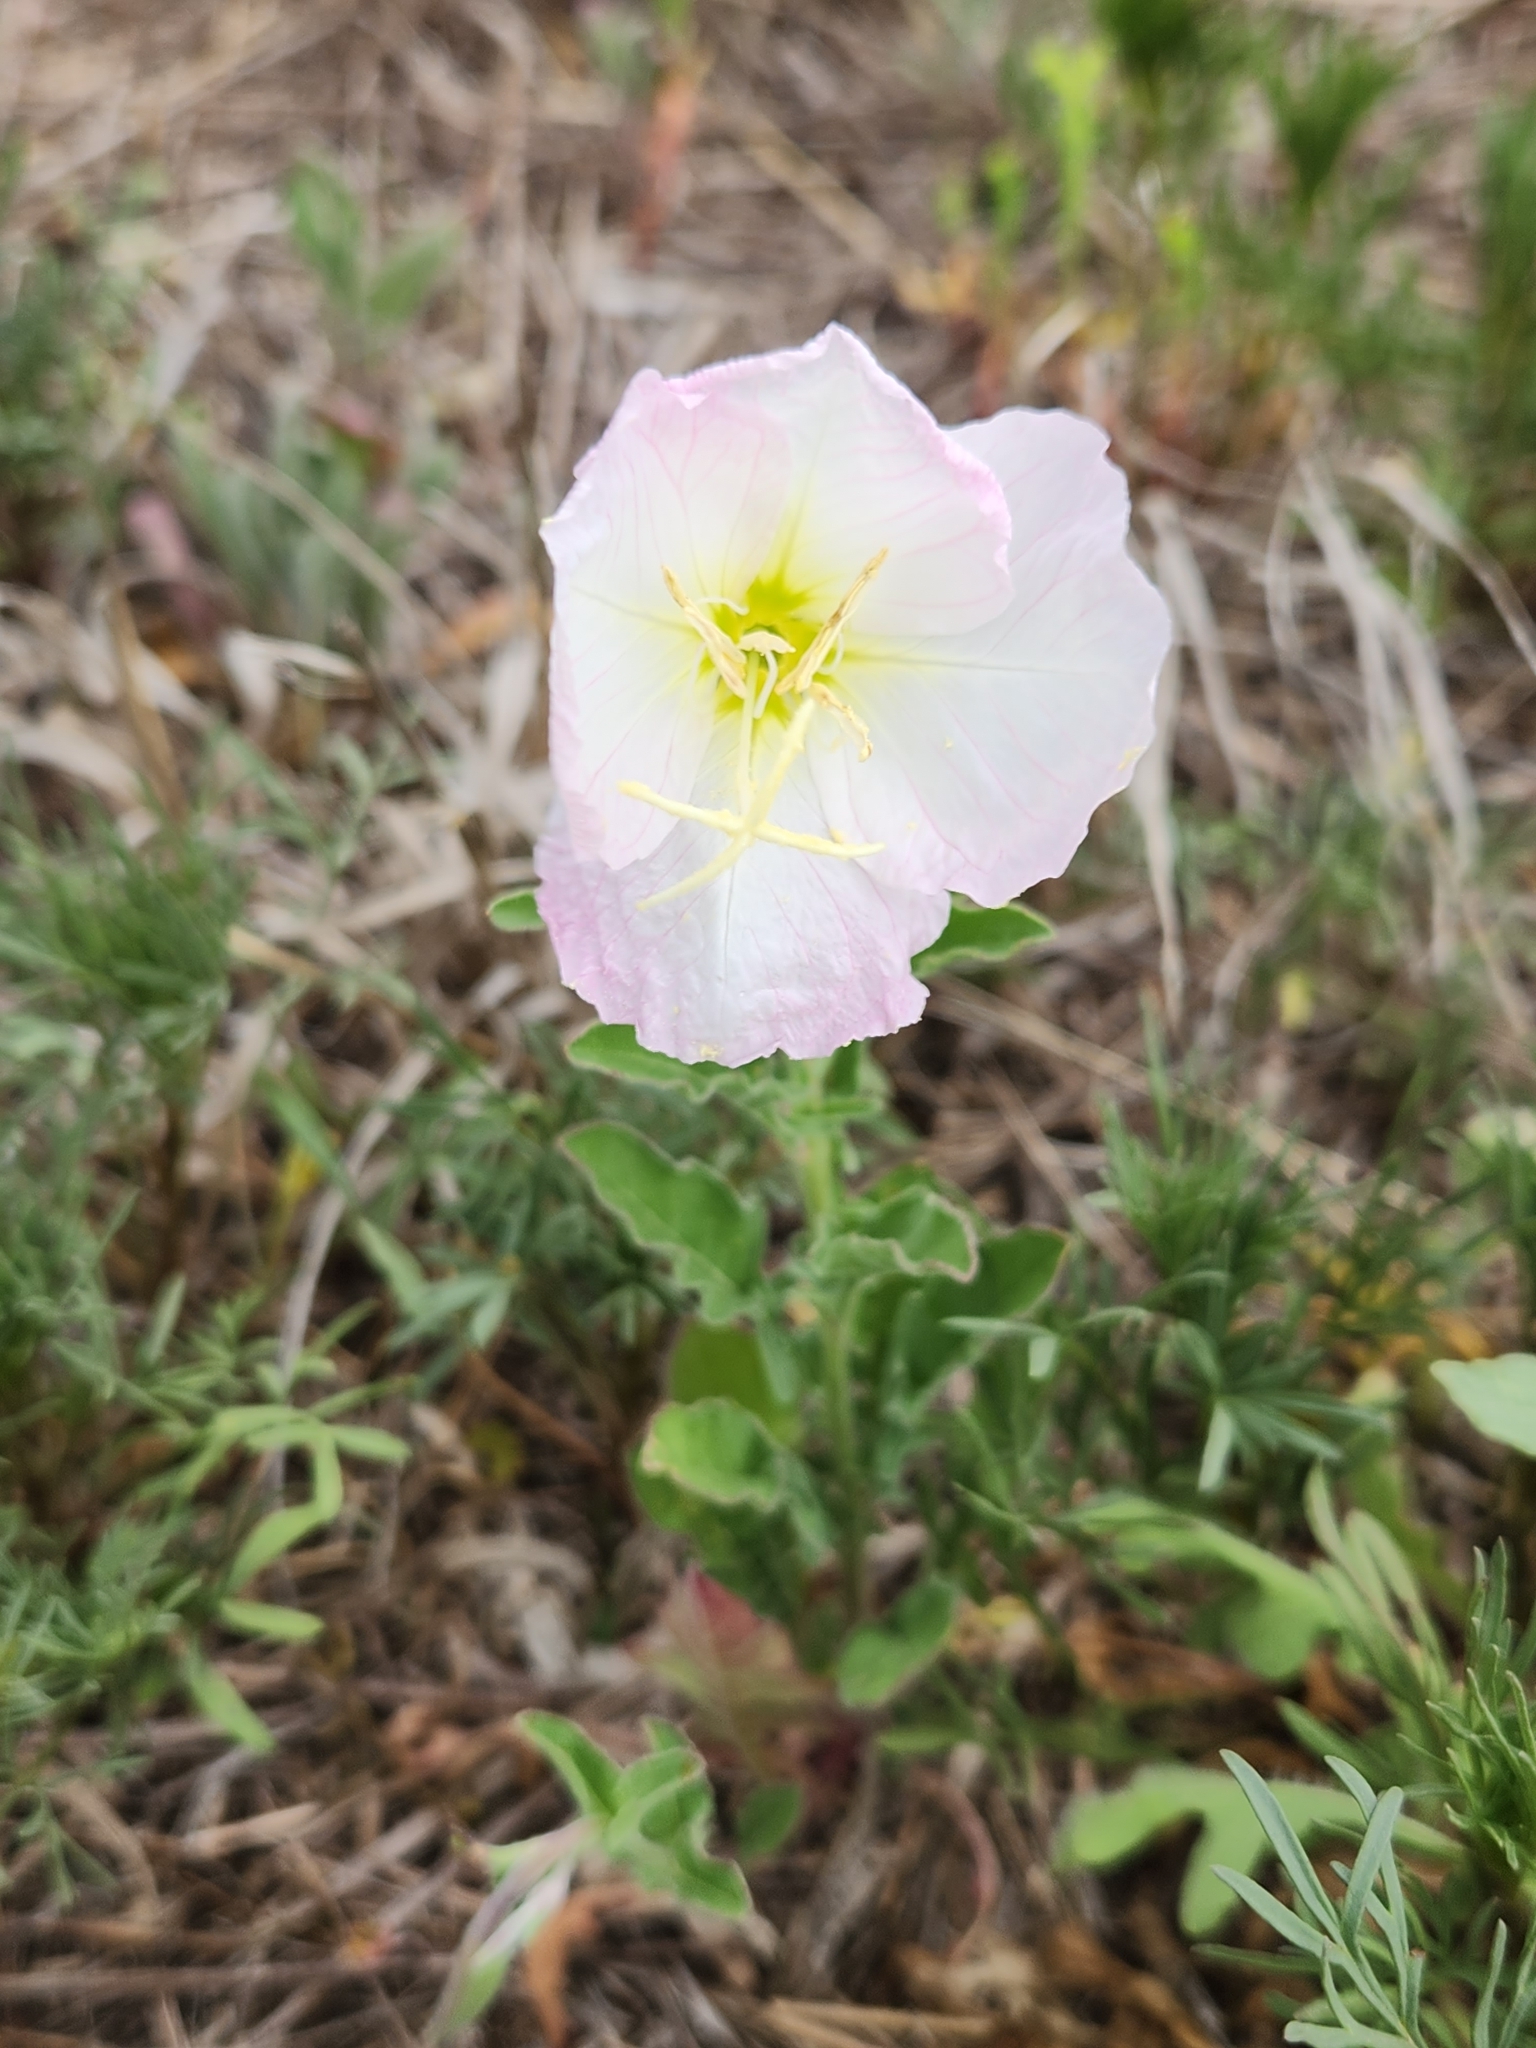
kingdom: Plantae
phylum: Tracheophyta
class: Magnoliopsida
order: Myrtales
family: Onagraceae
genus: Oenothera
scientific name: Oenothera speciosa
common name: White evening-primrose
